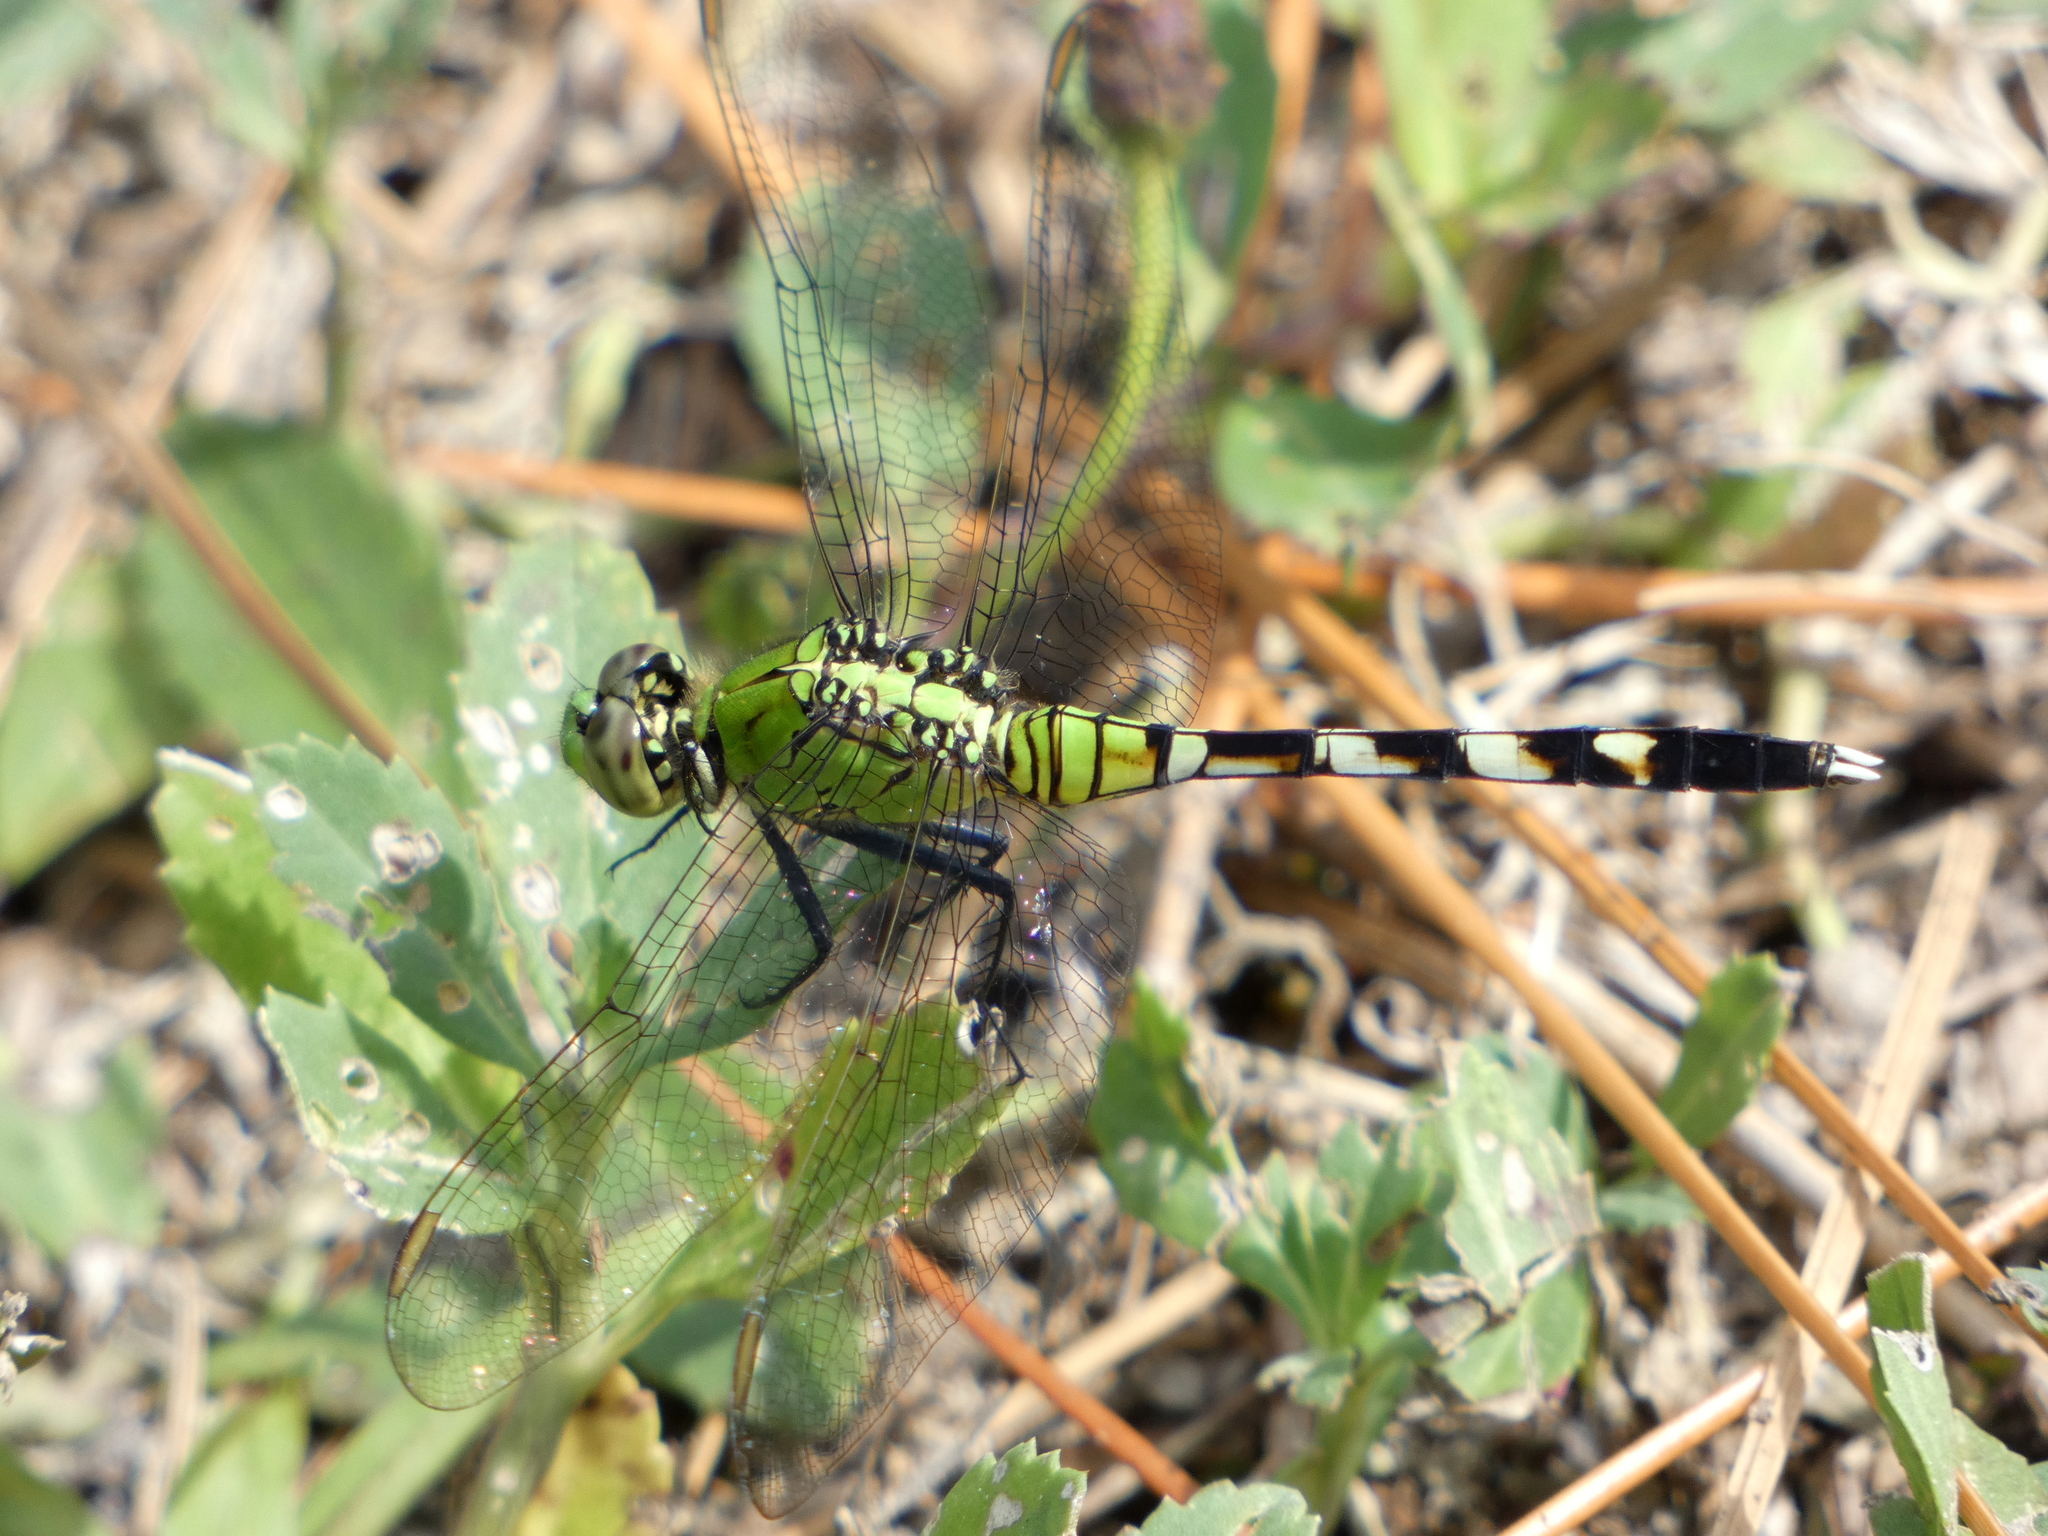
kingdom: Animalia
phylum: Arthropoda
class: Insecta
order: Odonata
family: Libellulidae
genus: Erythemis
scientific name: Erythemis simplicicollis
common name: Eastern pondhawk
